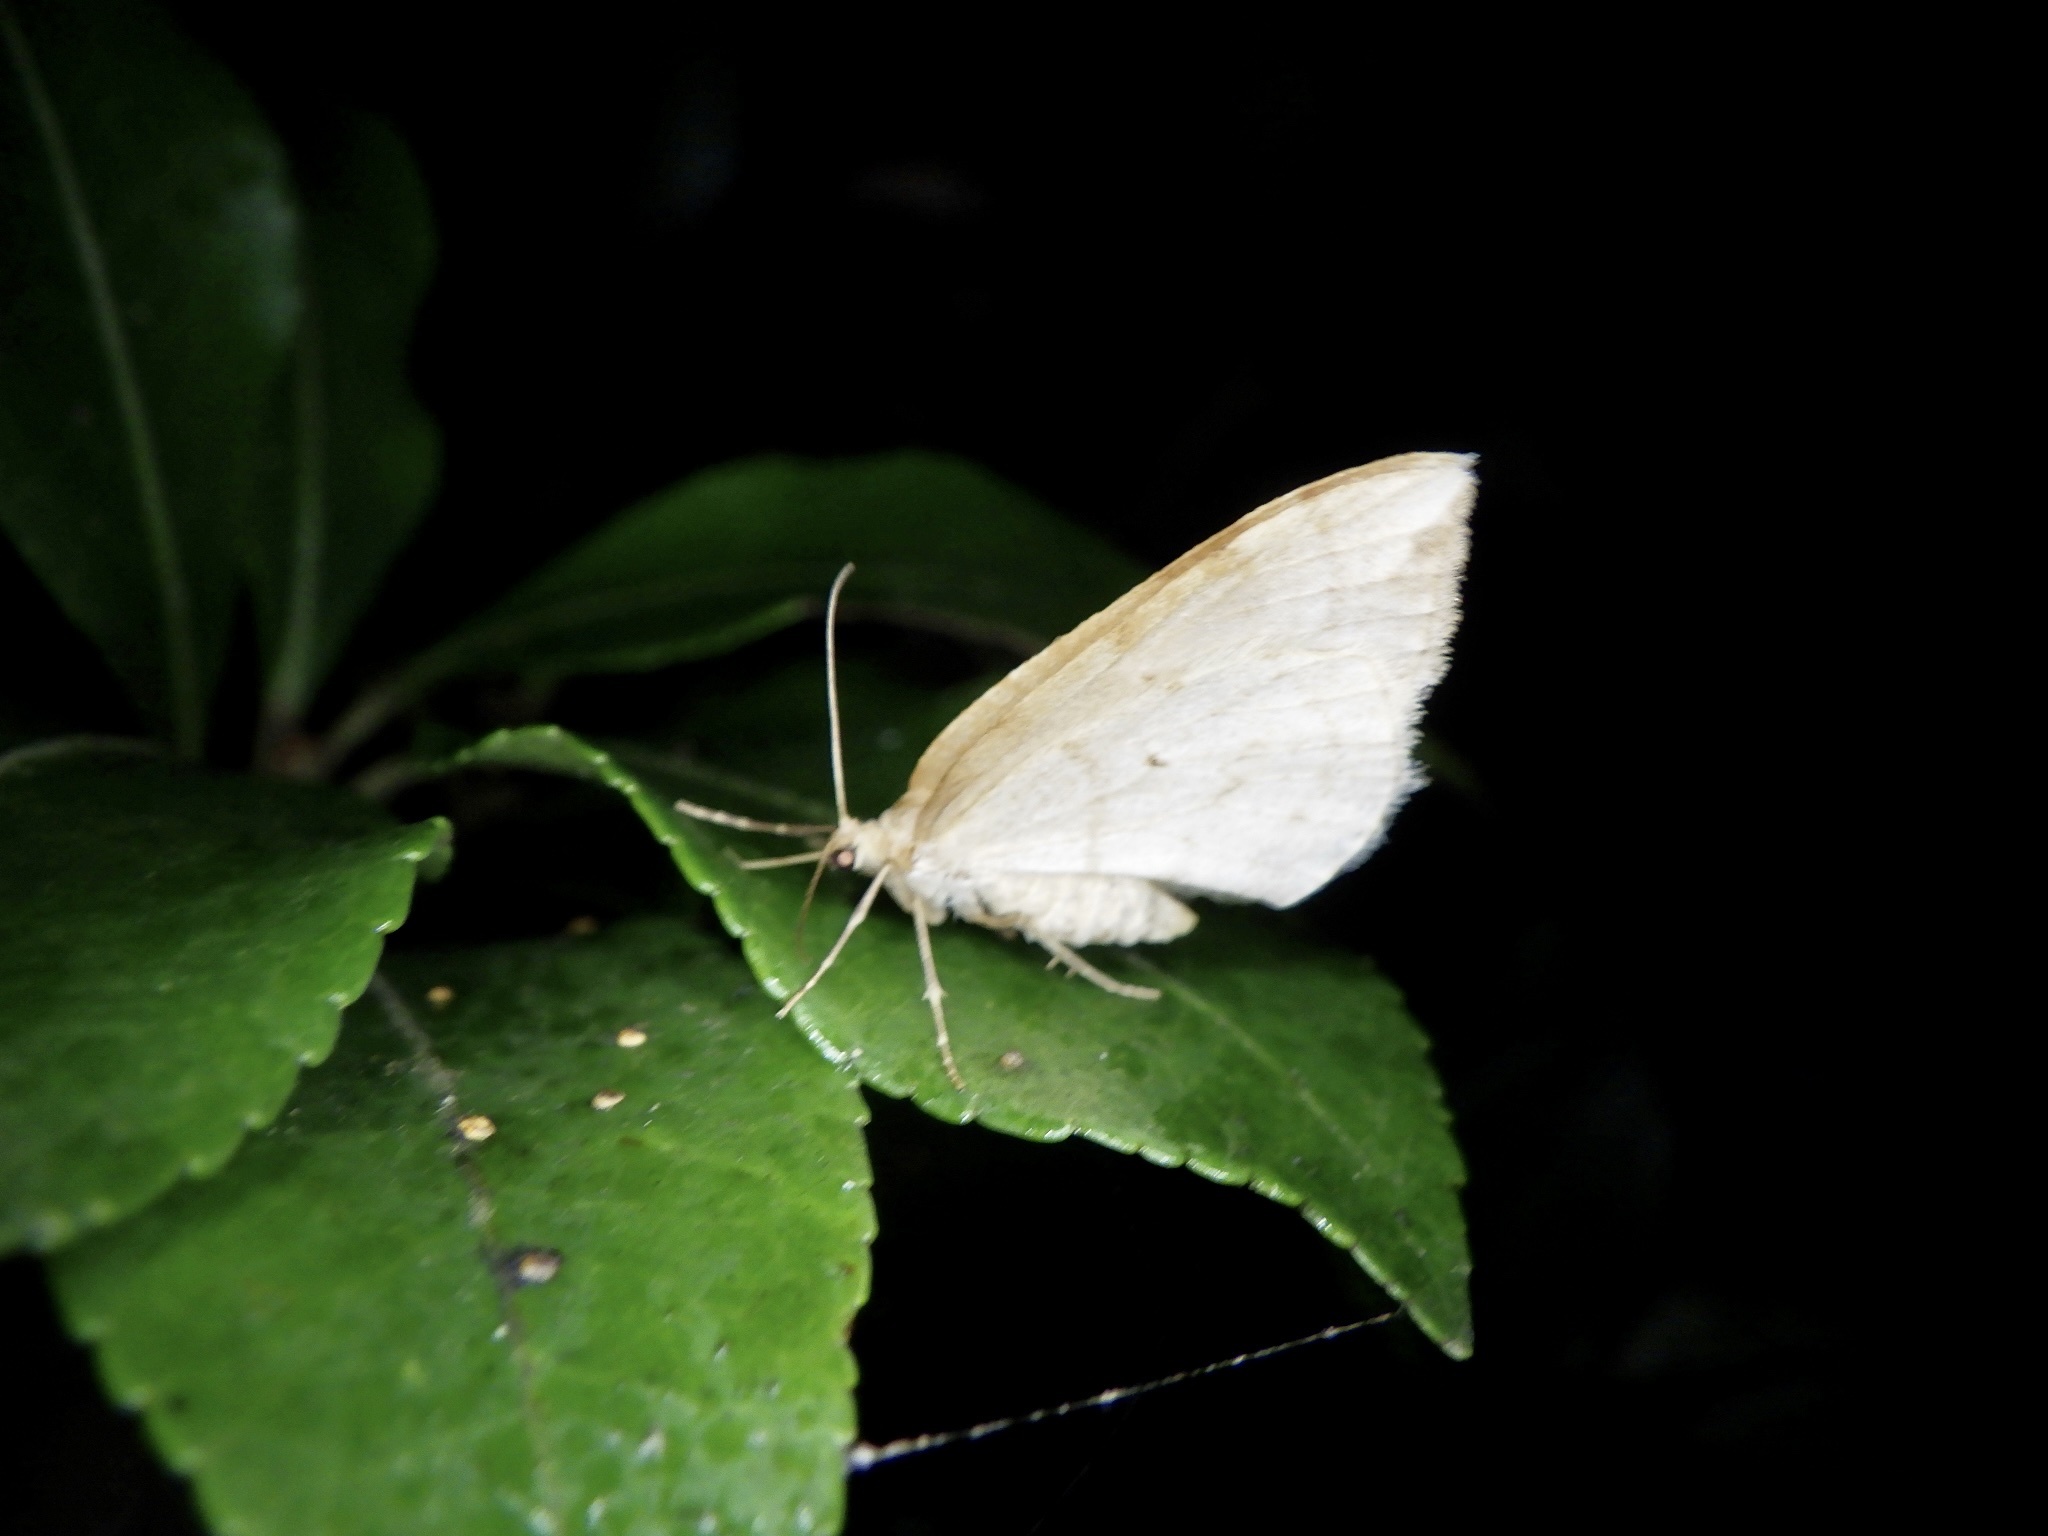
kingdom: Animalia
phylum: Arthropoda
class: Insecta
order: Lepidoptera
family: Geometridae
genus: Nothoporinia
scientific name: Nothoporinia mediolineata
